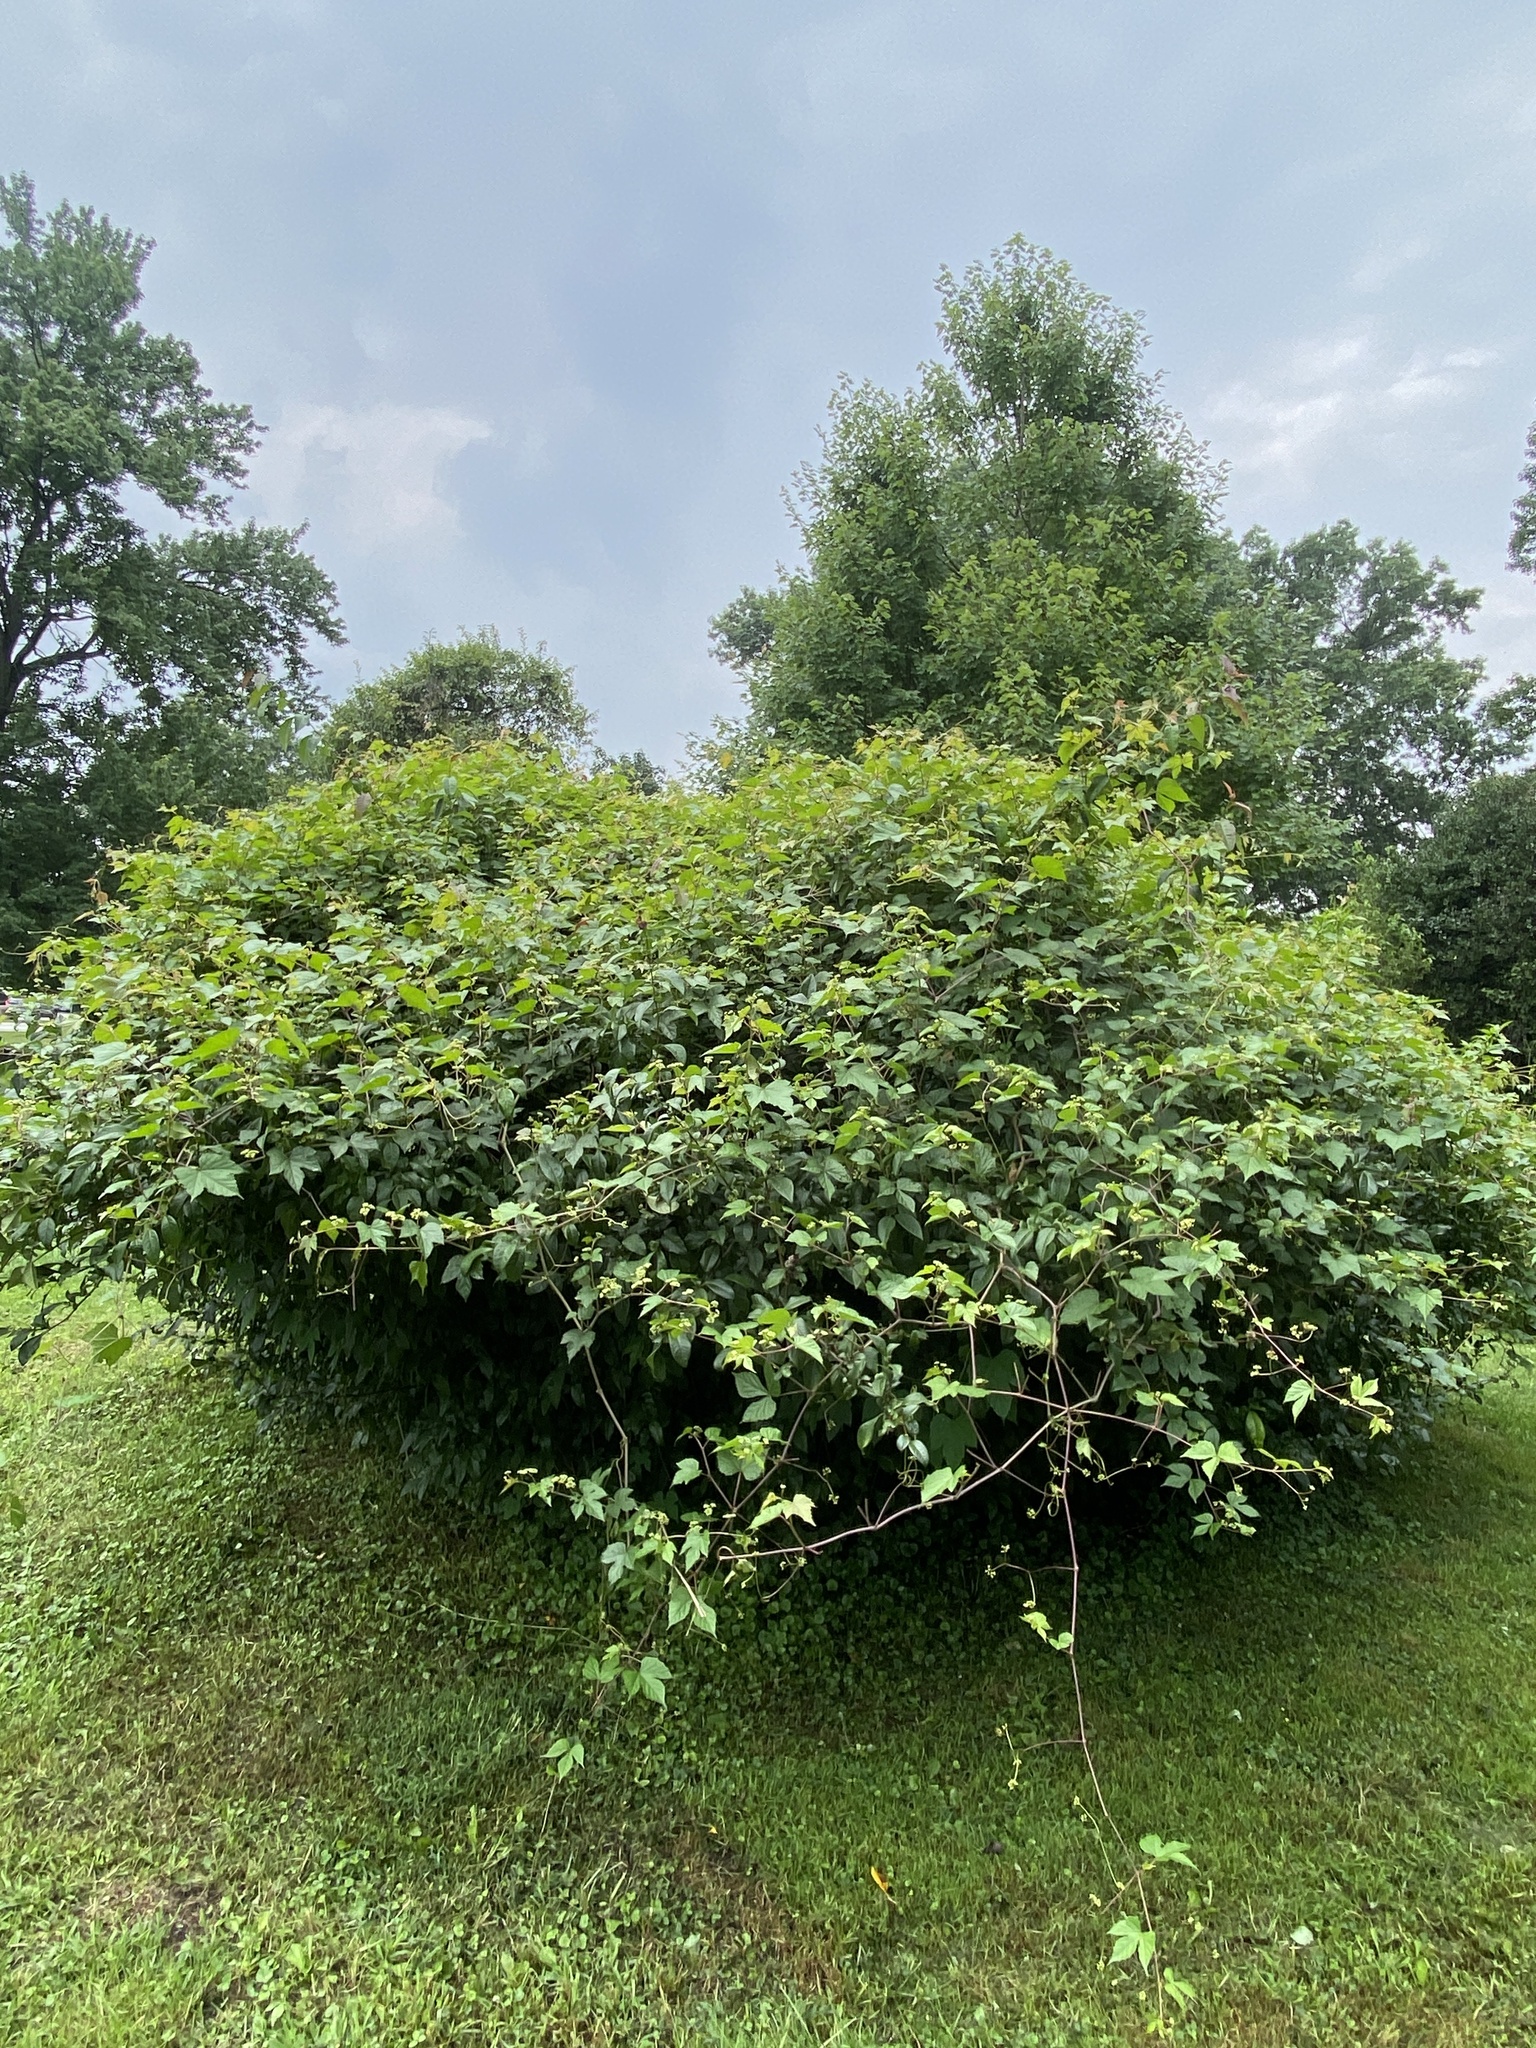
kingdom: Plantae
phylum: Tracheophyta
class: Magnoliopsida
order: Vitales
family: Vitaceae
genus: Ampelopsis
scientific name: Ampelopsis glandulosa
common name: Amur peppervine
